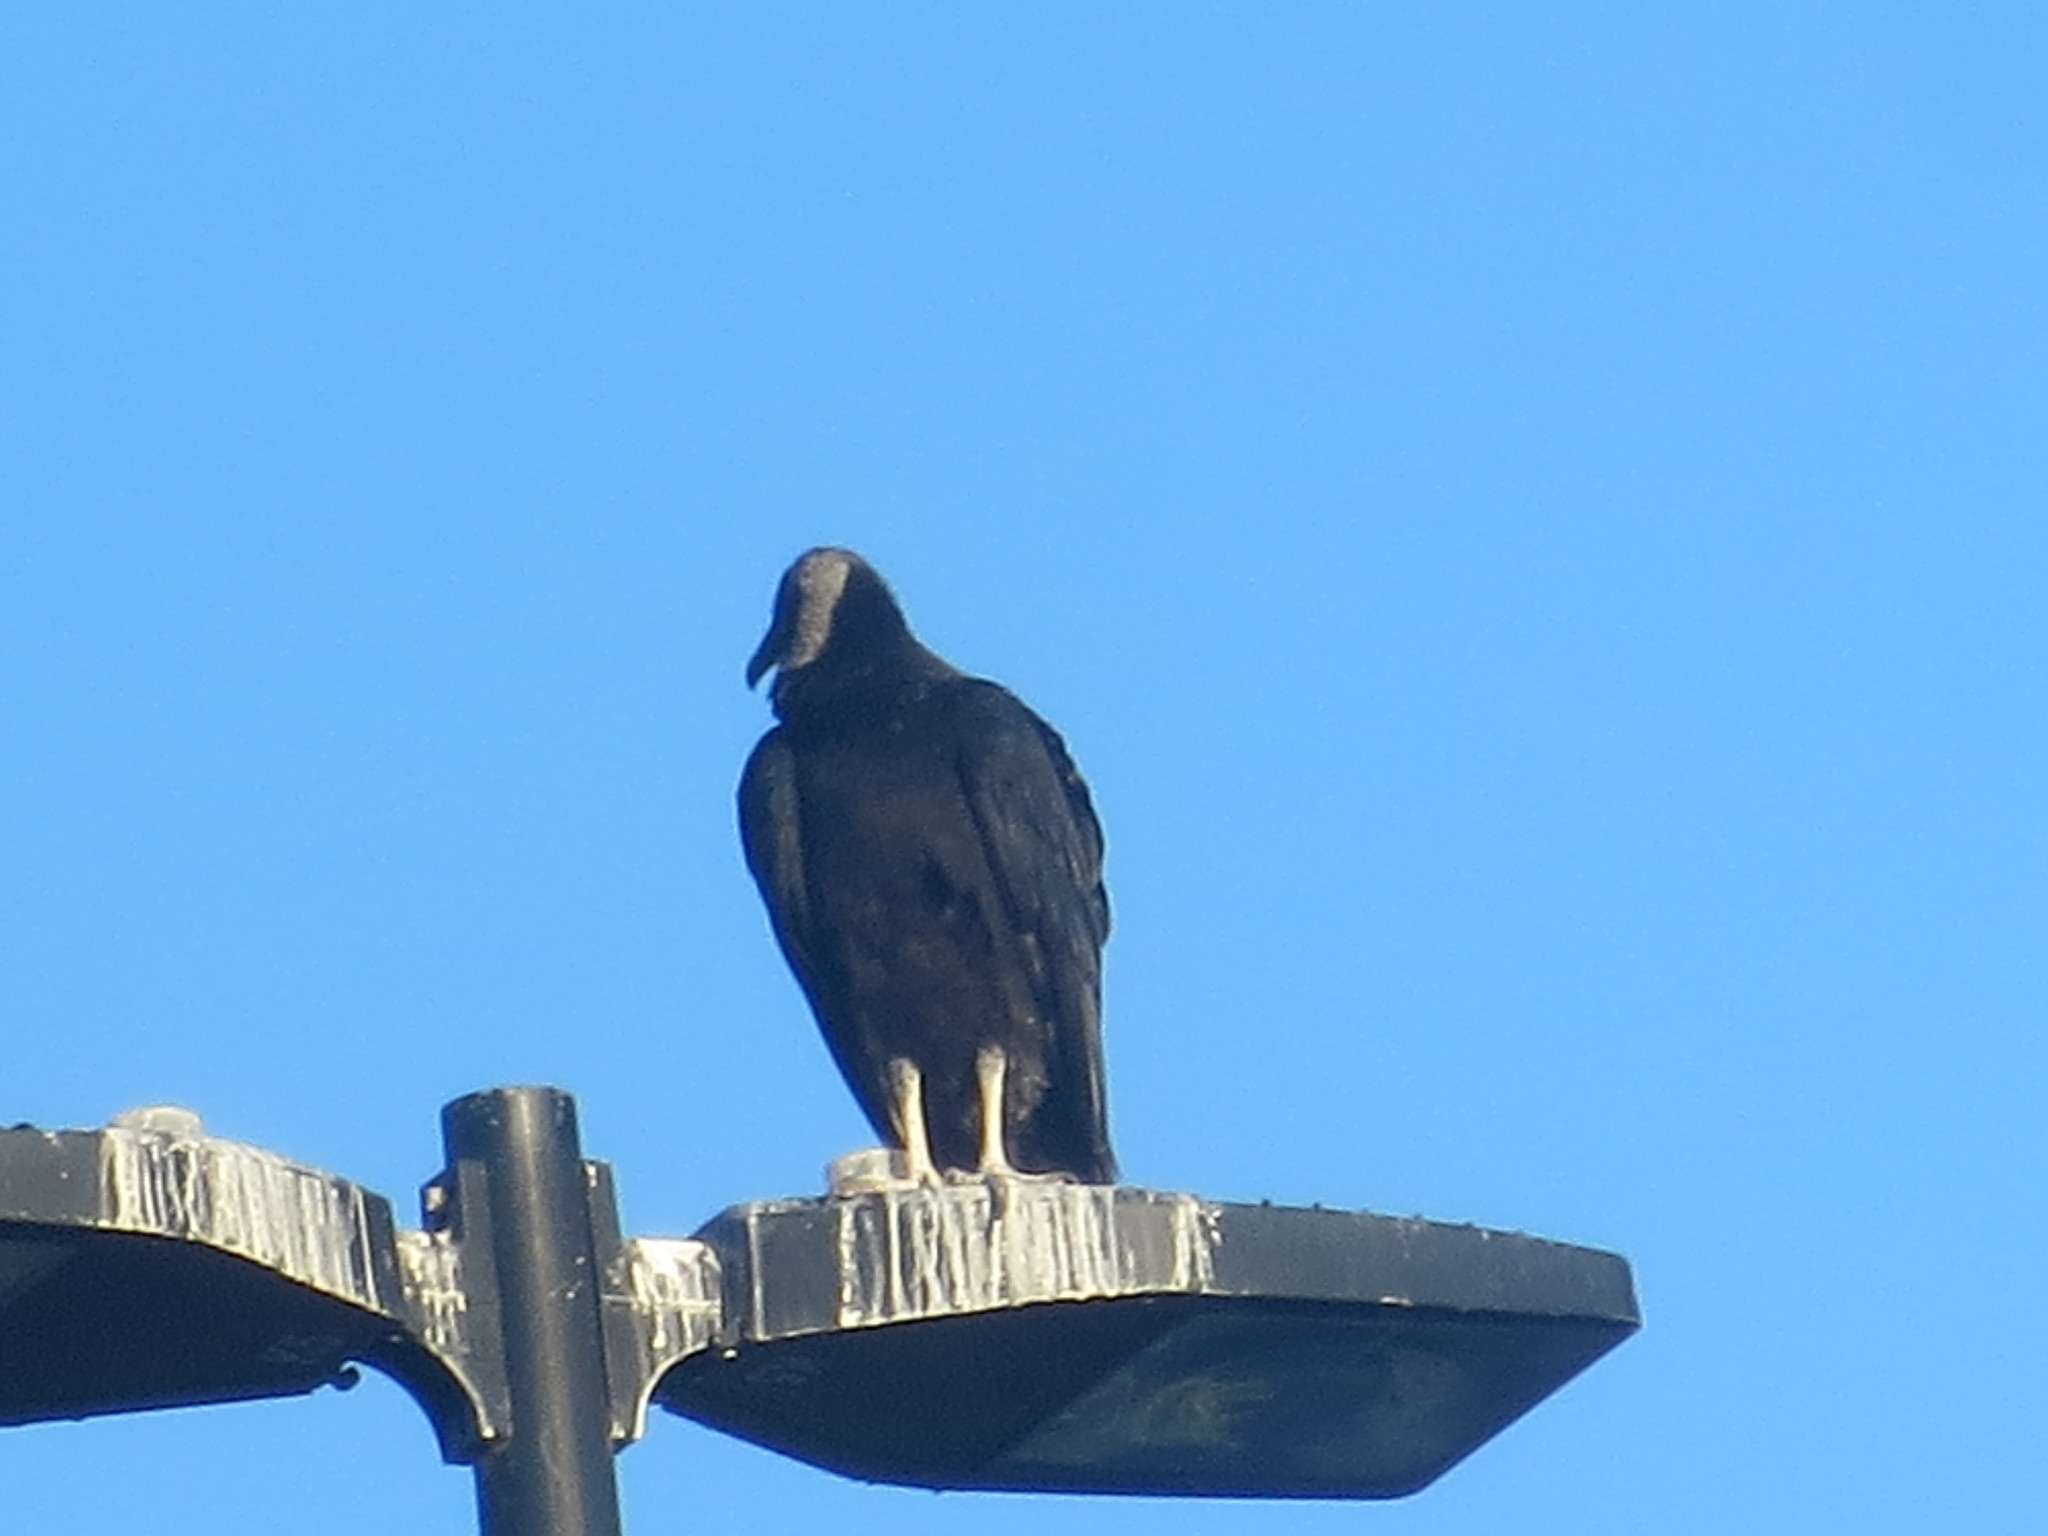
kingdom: Animalia
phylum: Chordata
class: Aves
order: Accipitriformes
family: Cathartidae
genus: Coragyps
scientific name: Coragyps atratus
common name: Black vulture
